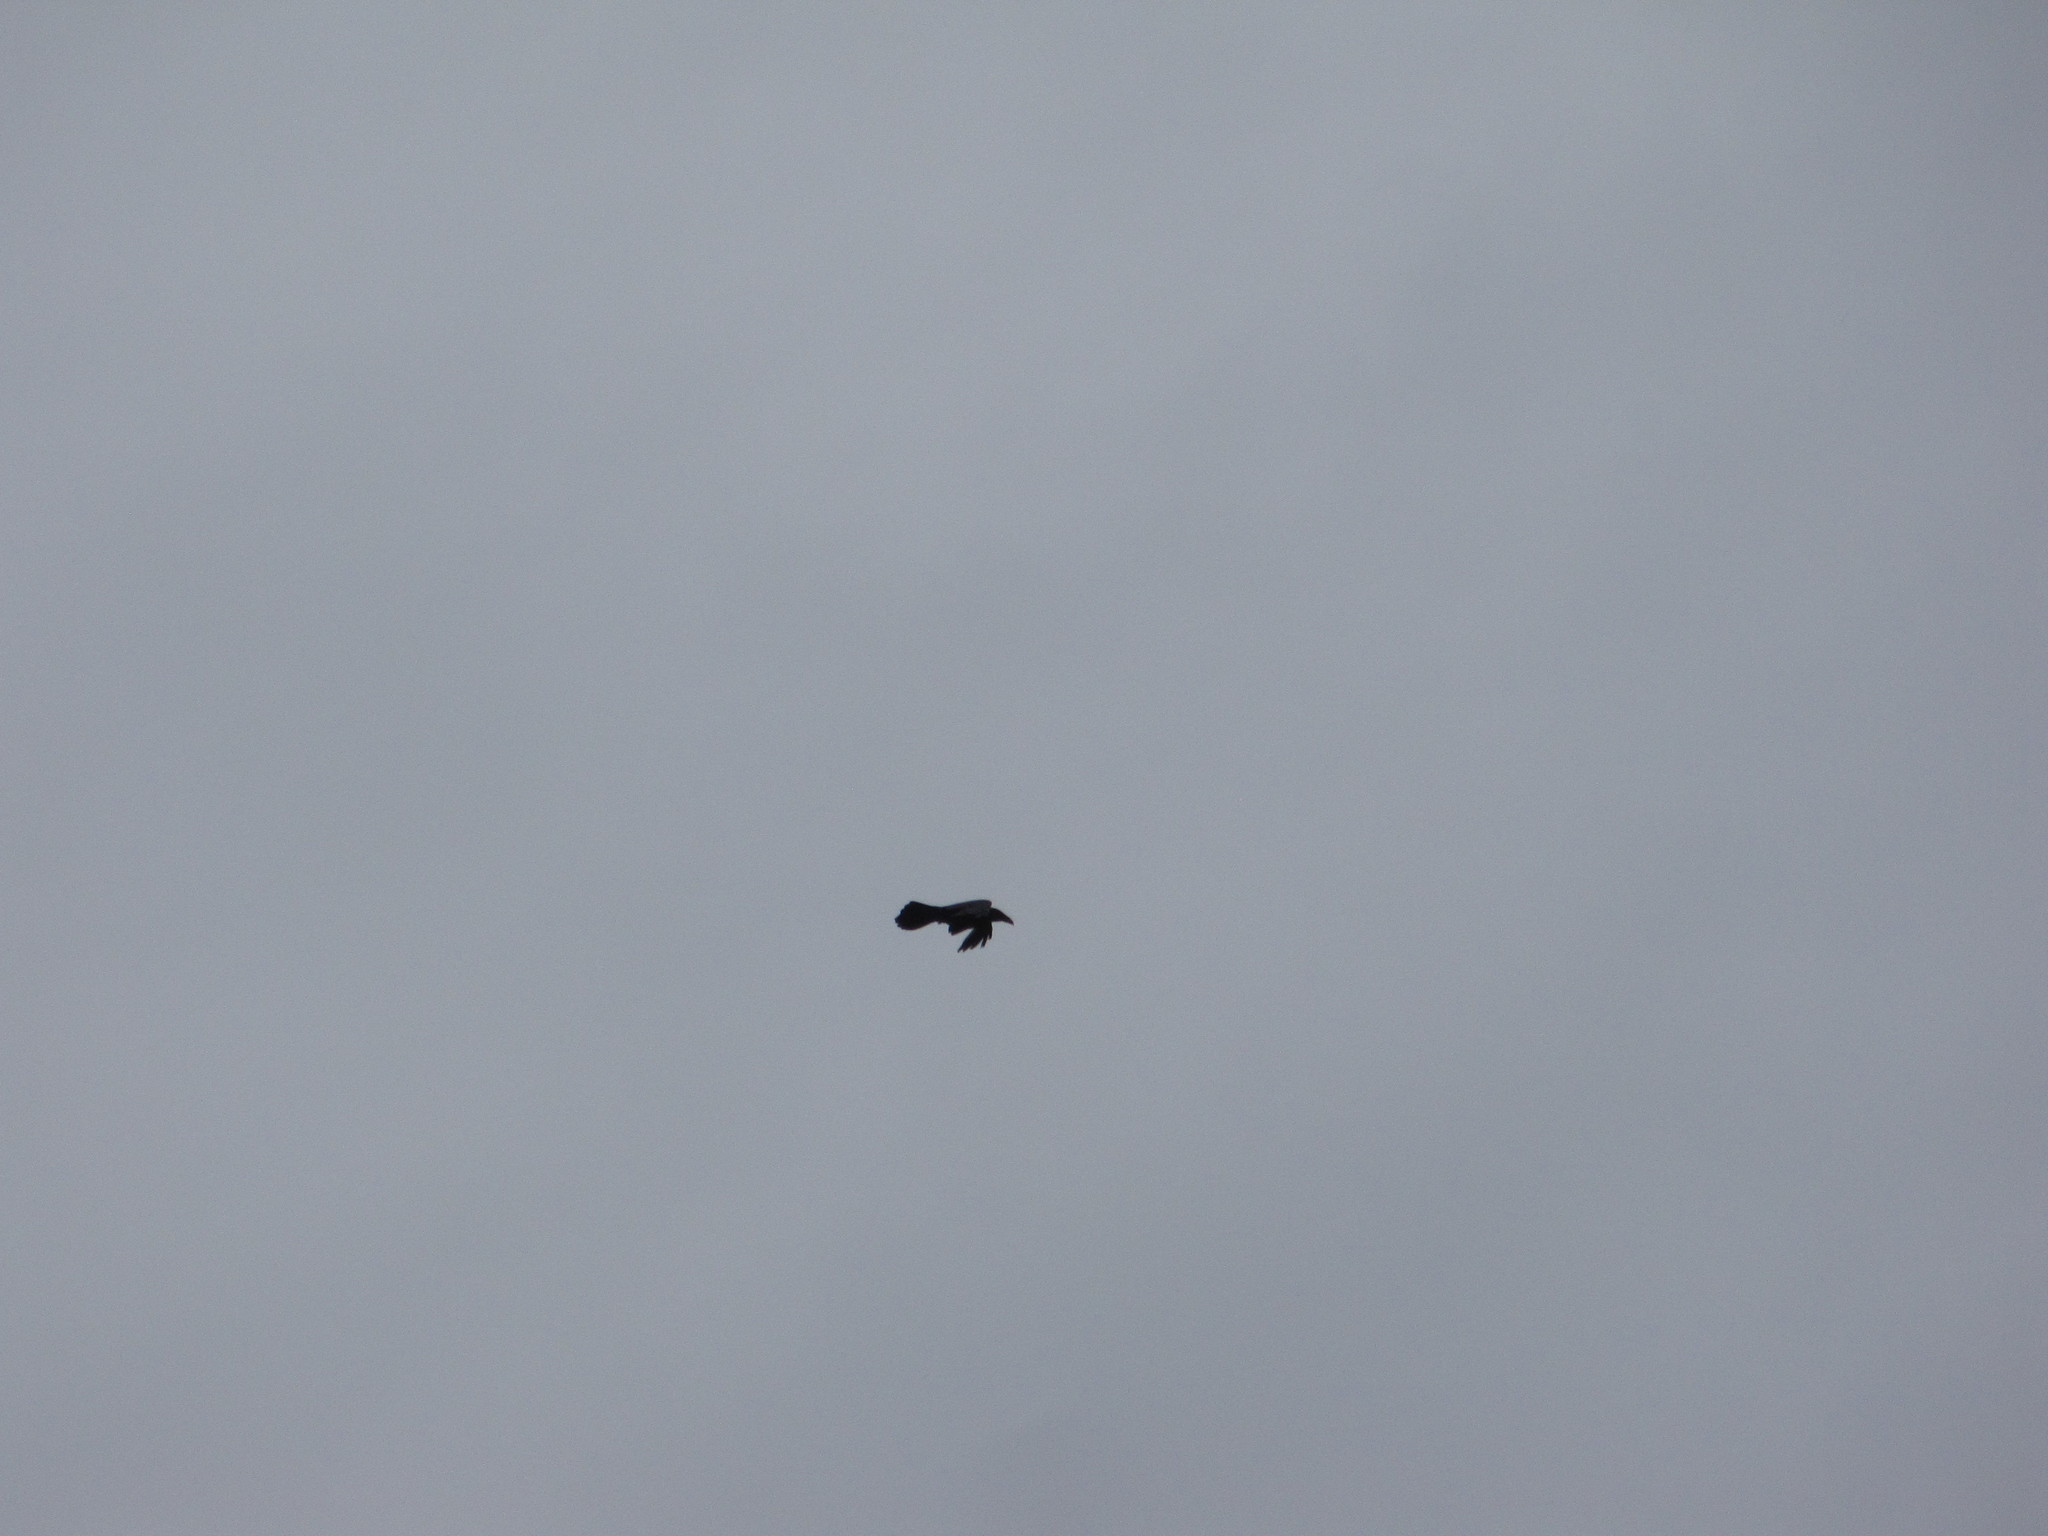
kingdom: Animalia
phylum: Chordata
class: Aves
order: Passeriformes
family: Corvidae
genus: Corvus
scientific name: Corvus corax
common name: Common raven
